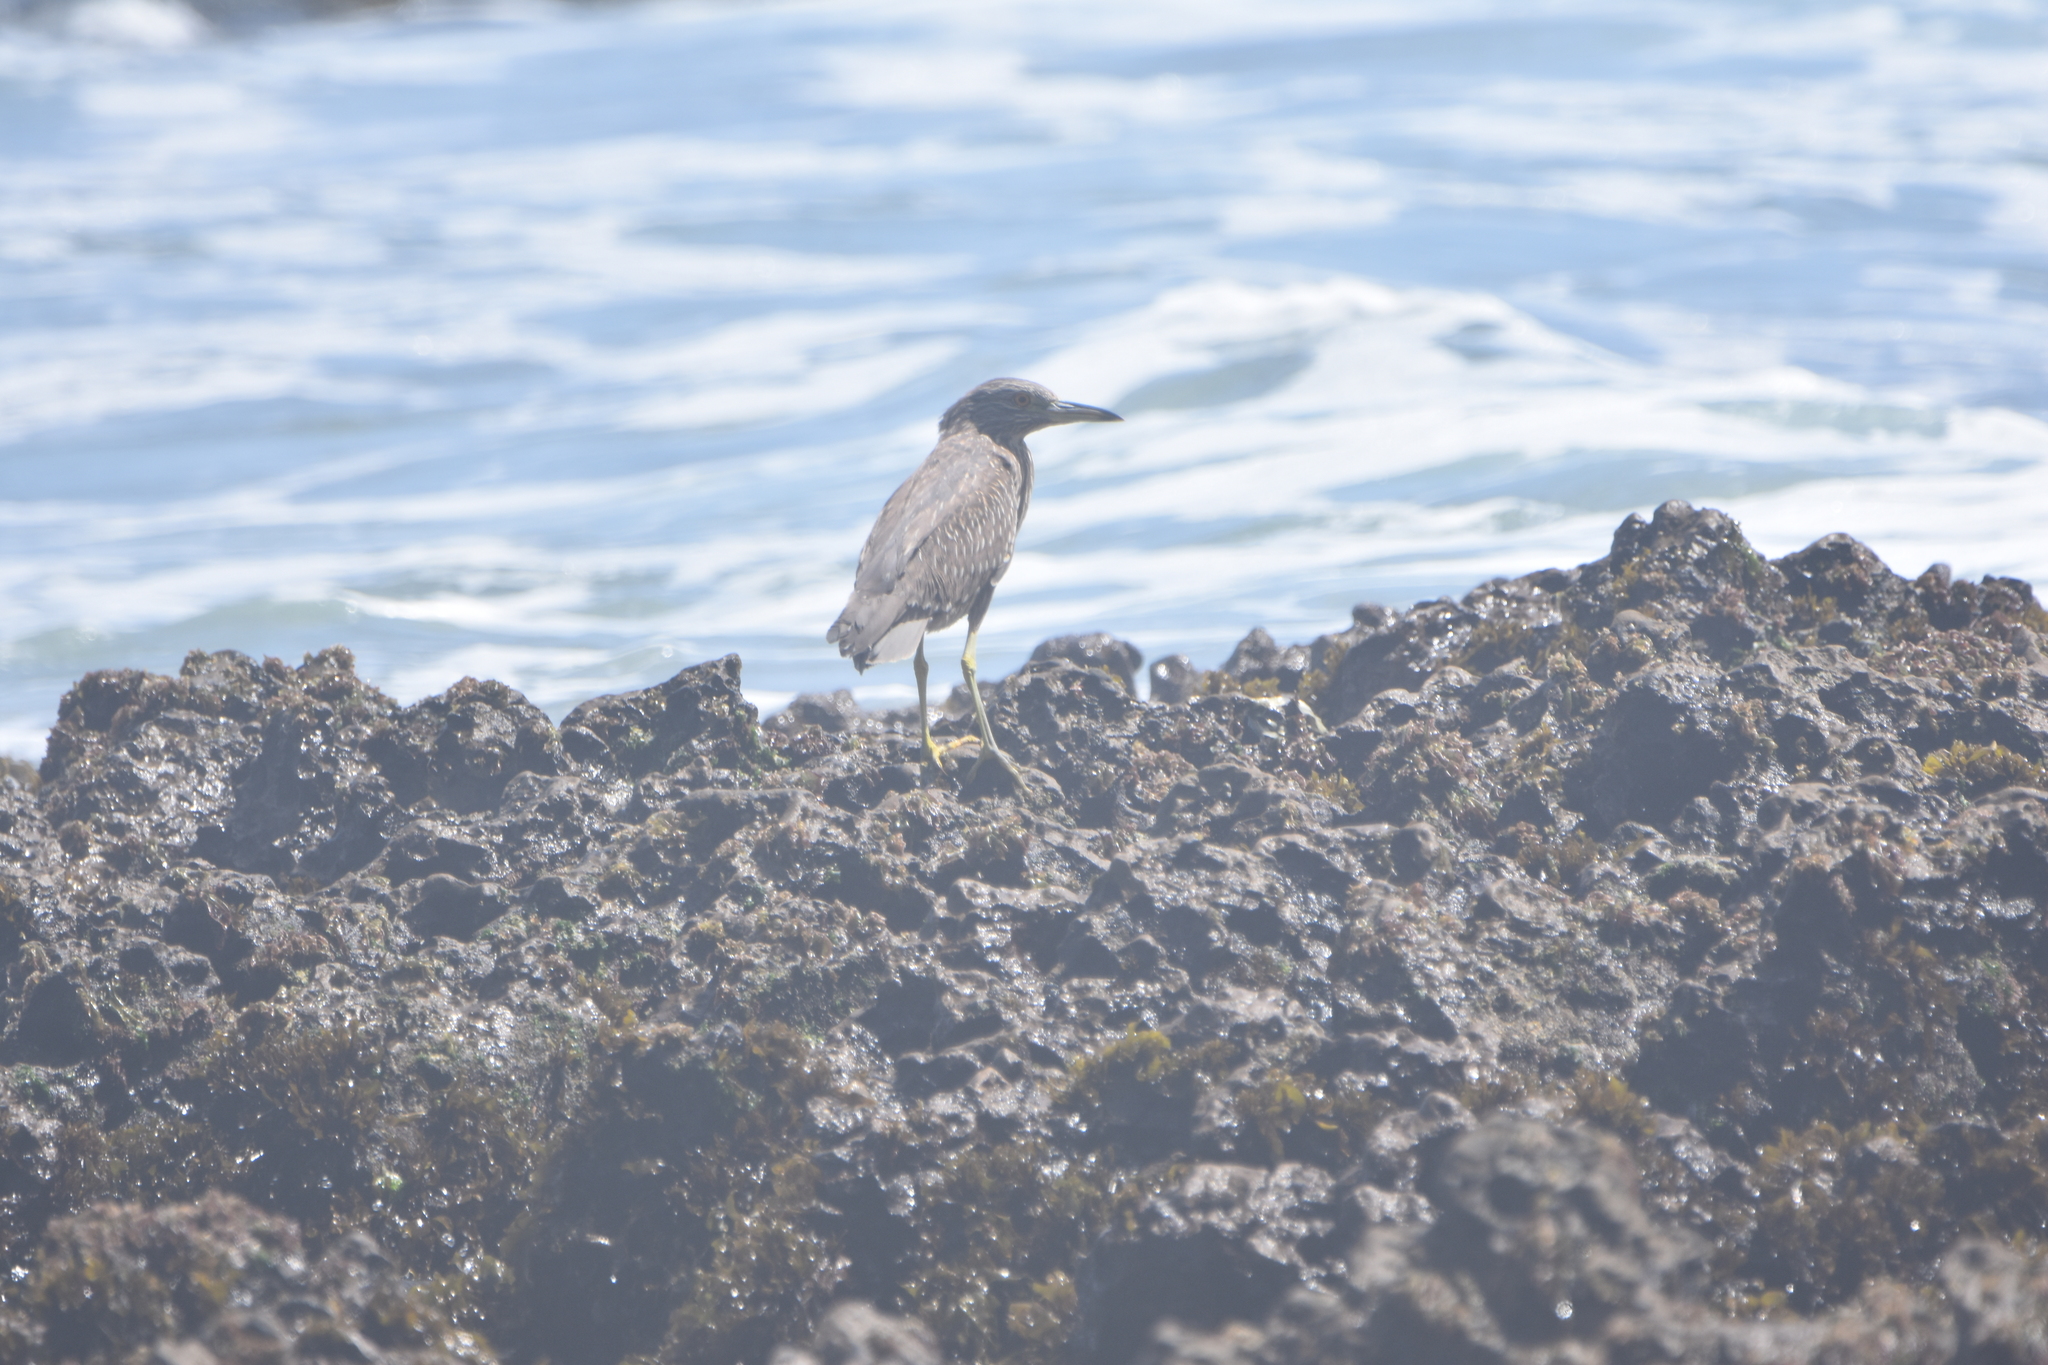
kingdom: Animalia
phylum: Chordata
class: Aves
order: Pelecaniformes
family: Ardeidae
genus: Nycticorax
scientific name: Nycticorax nycticorax
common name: Black-crowned night heron
